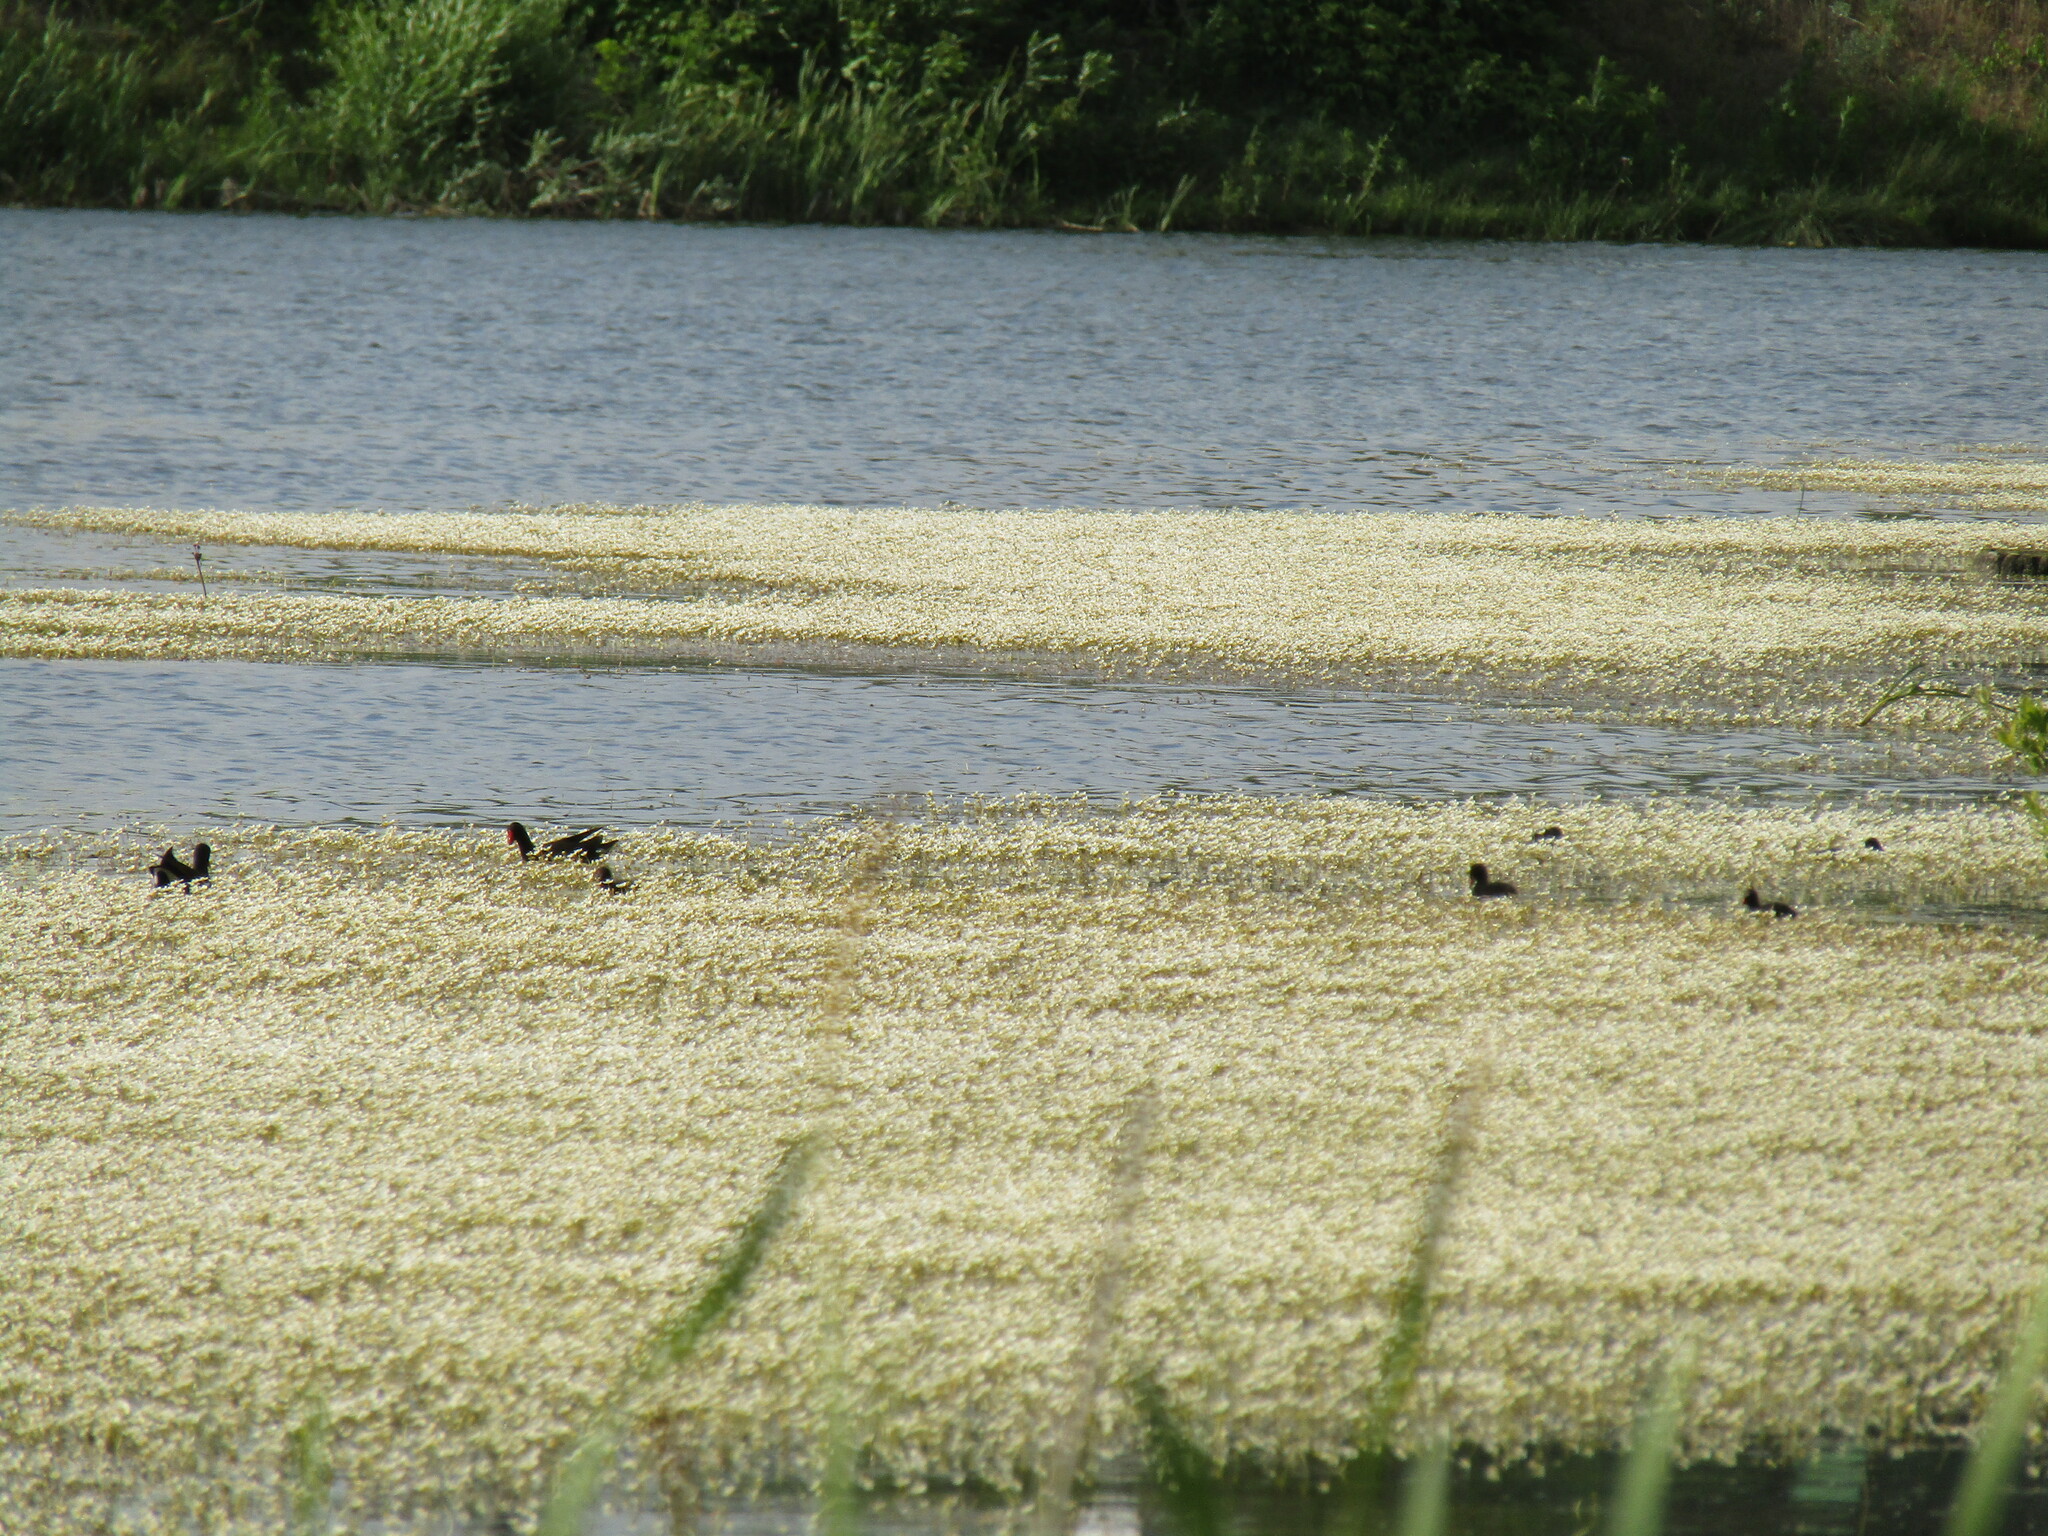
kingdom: Animalia
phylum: Chordata
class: Aves
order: Gruiformes
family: Rallidae
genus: Gallinula
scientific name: Gallinula chloropus
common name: Common moorhen
